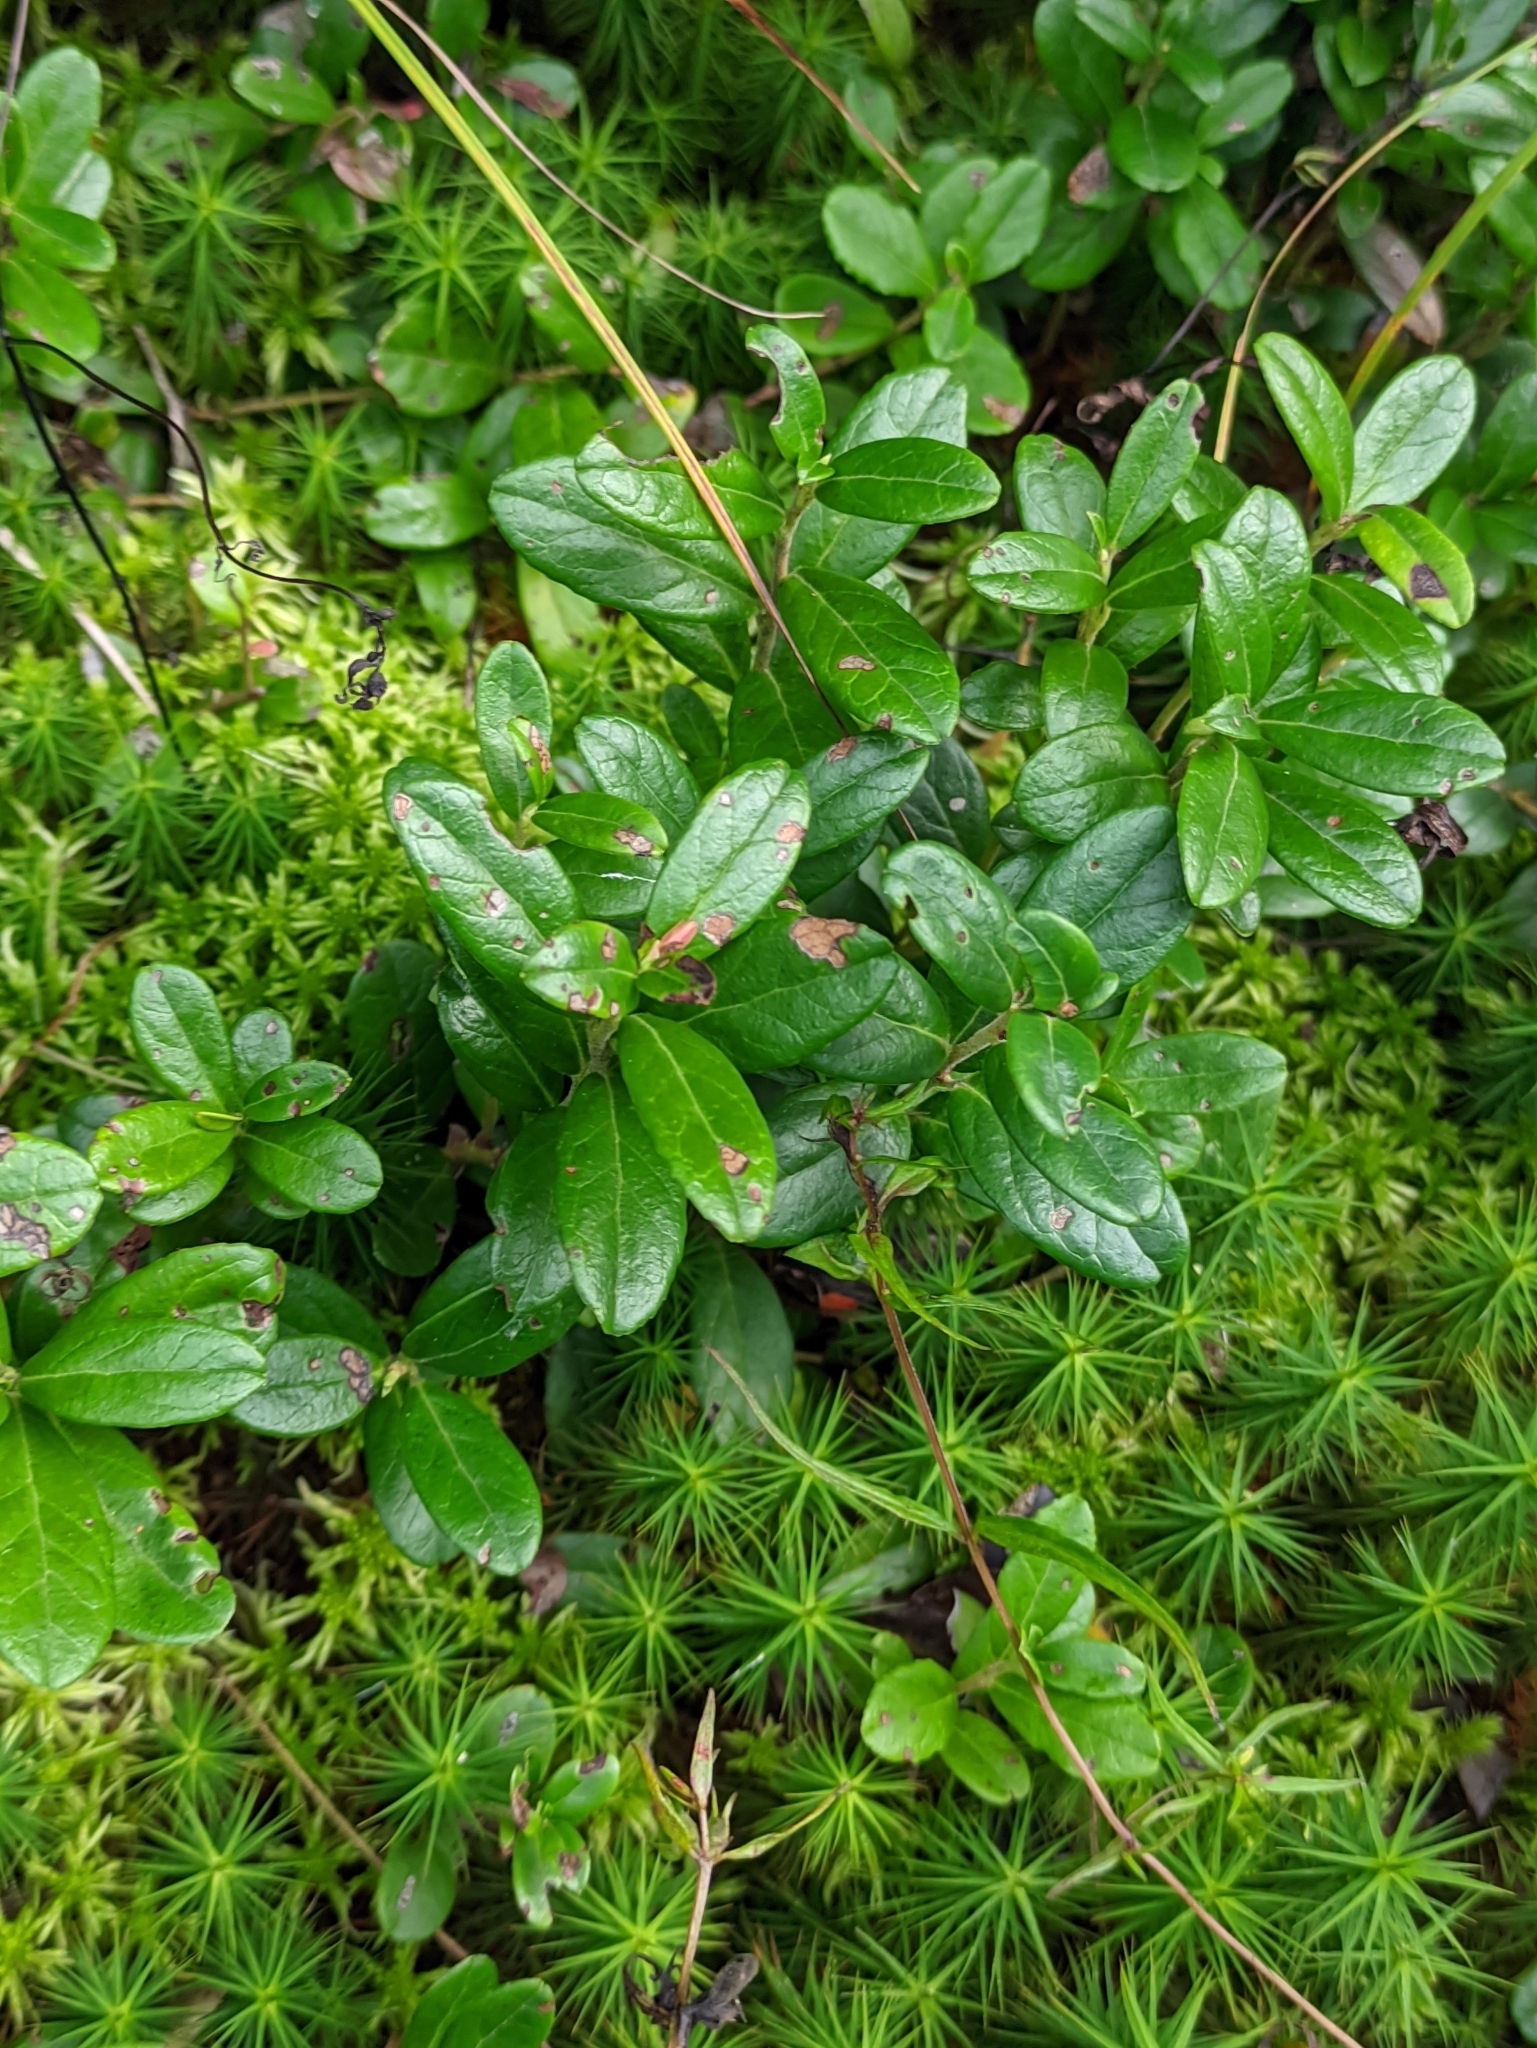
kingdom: Plantae
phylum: Tracheophyta
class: Magnoliopsida
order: Ericales
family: Ericaceae
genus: Vaccinium
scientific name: Vaccinium vitis-idaea
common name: Cowberry
